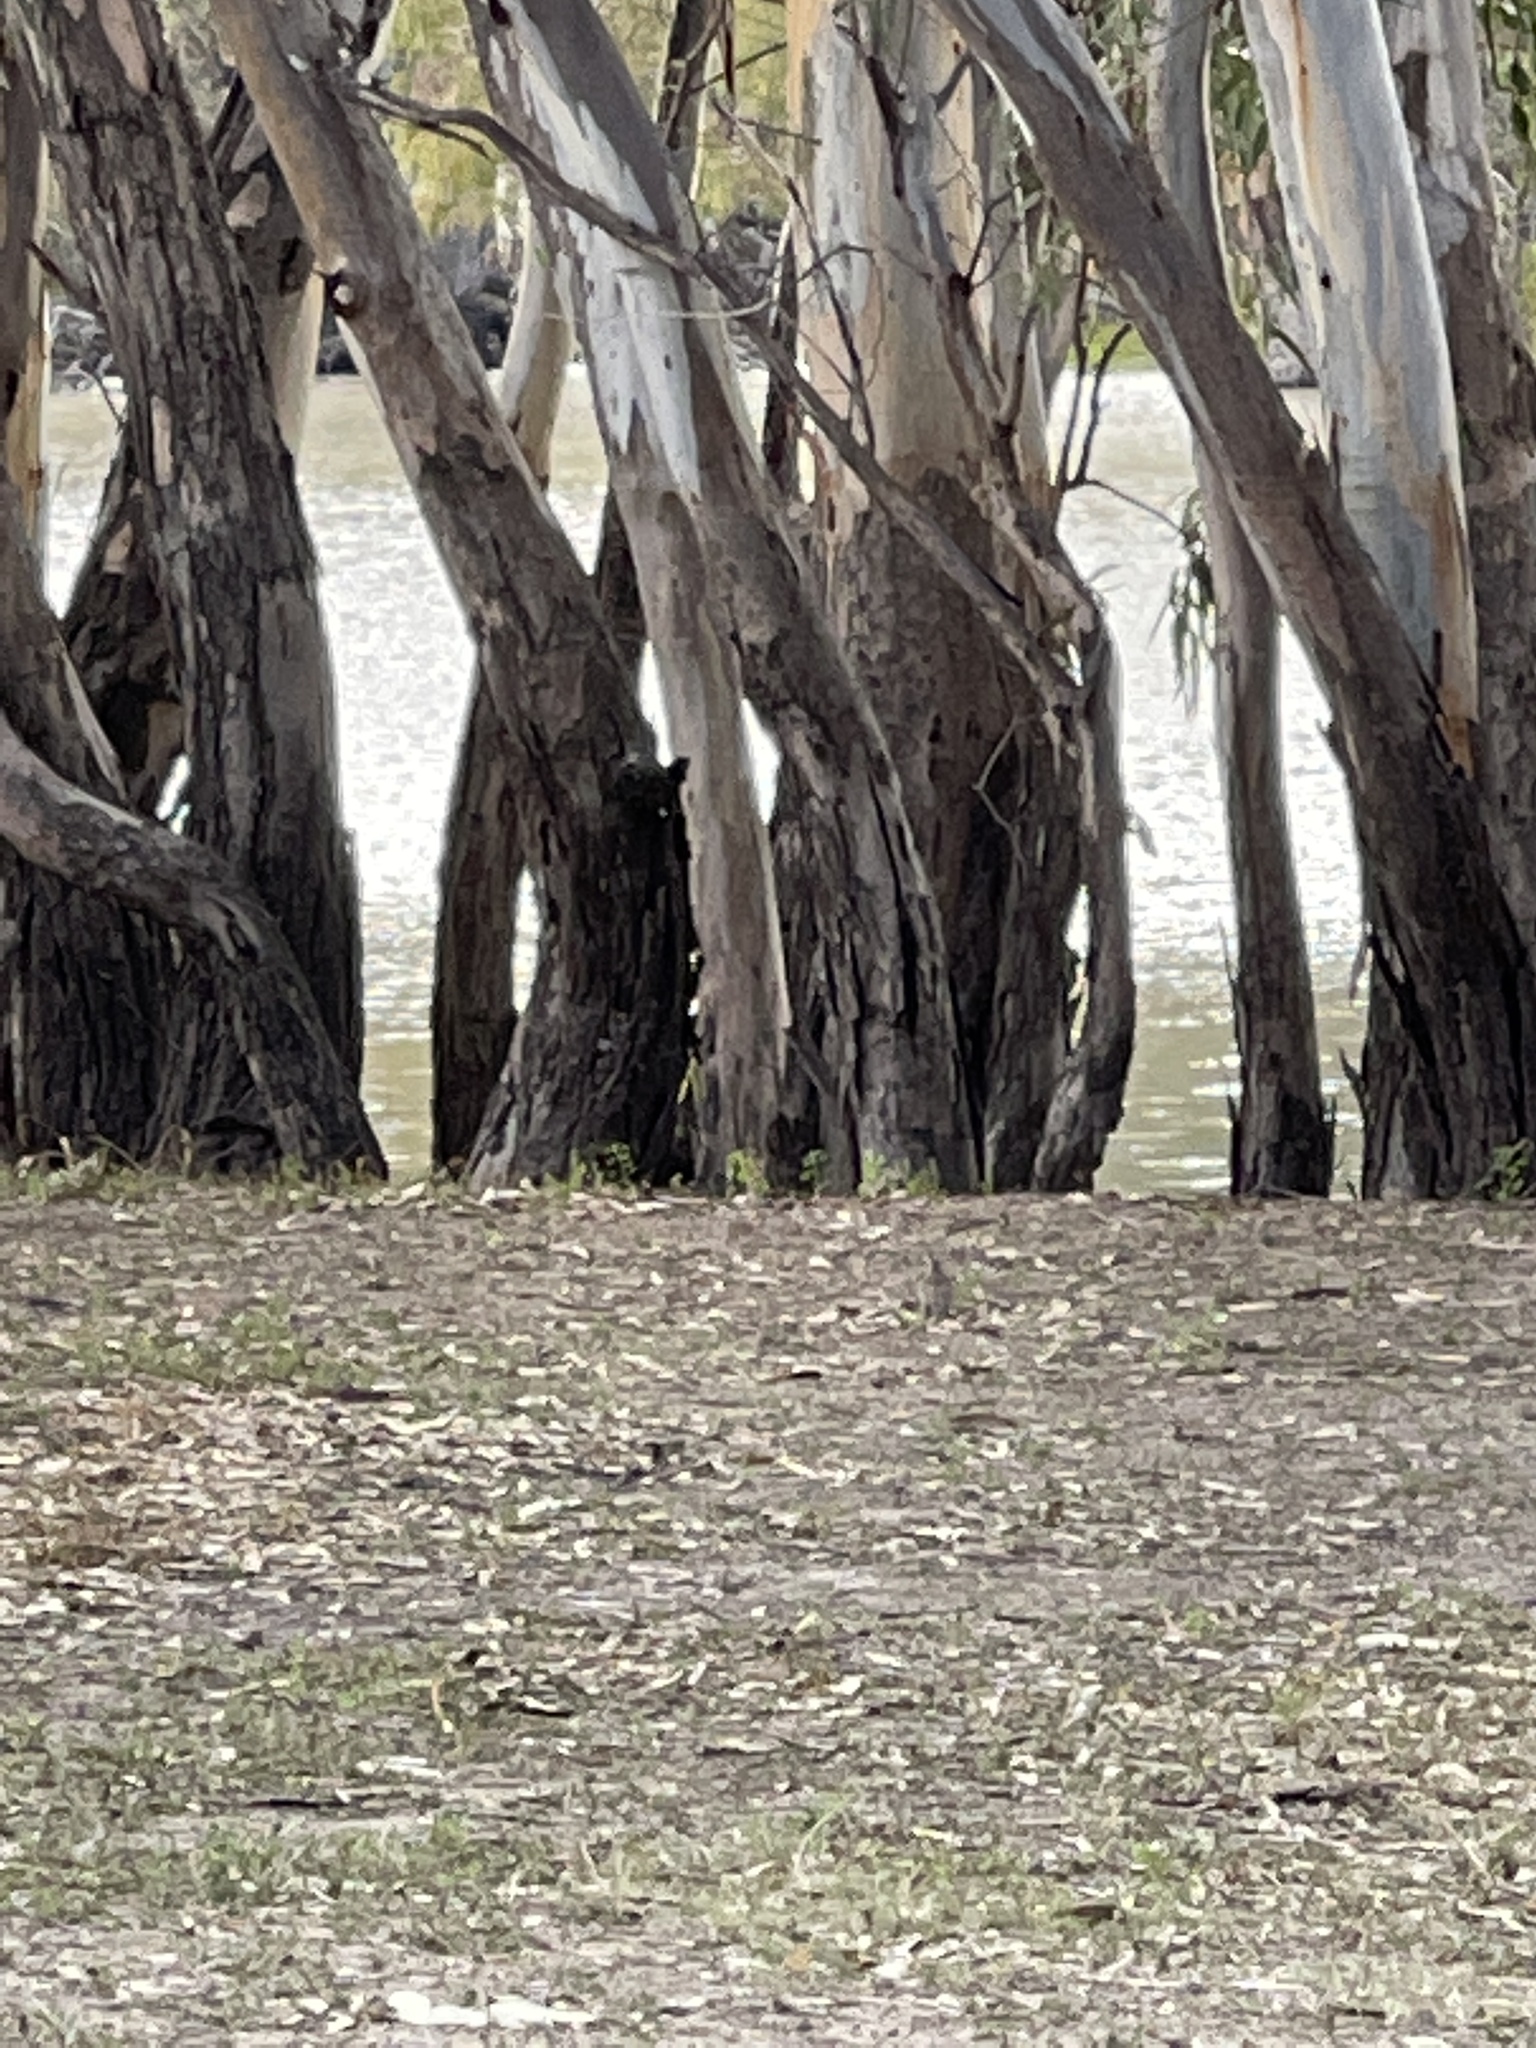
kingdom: Plantae
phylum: Tracheophyta
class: Magnoliopsida
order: Myrtales
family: Myrtaceae
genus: Eucalyptus
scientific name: Eucalyptus camaldulensis
